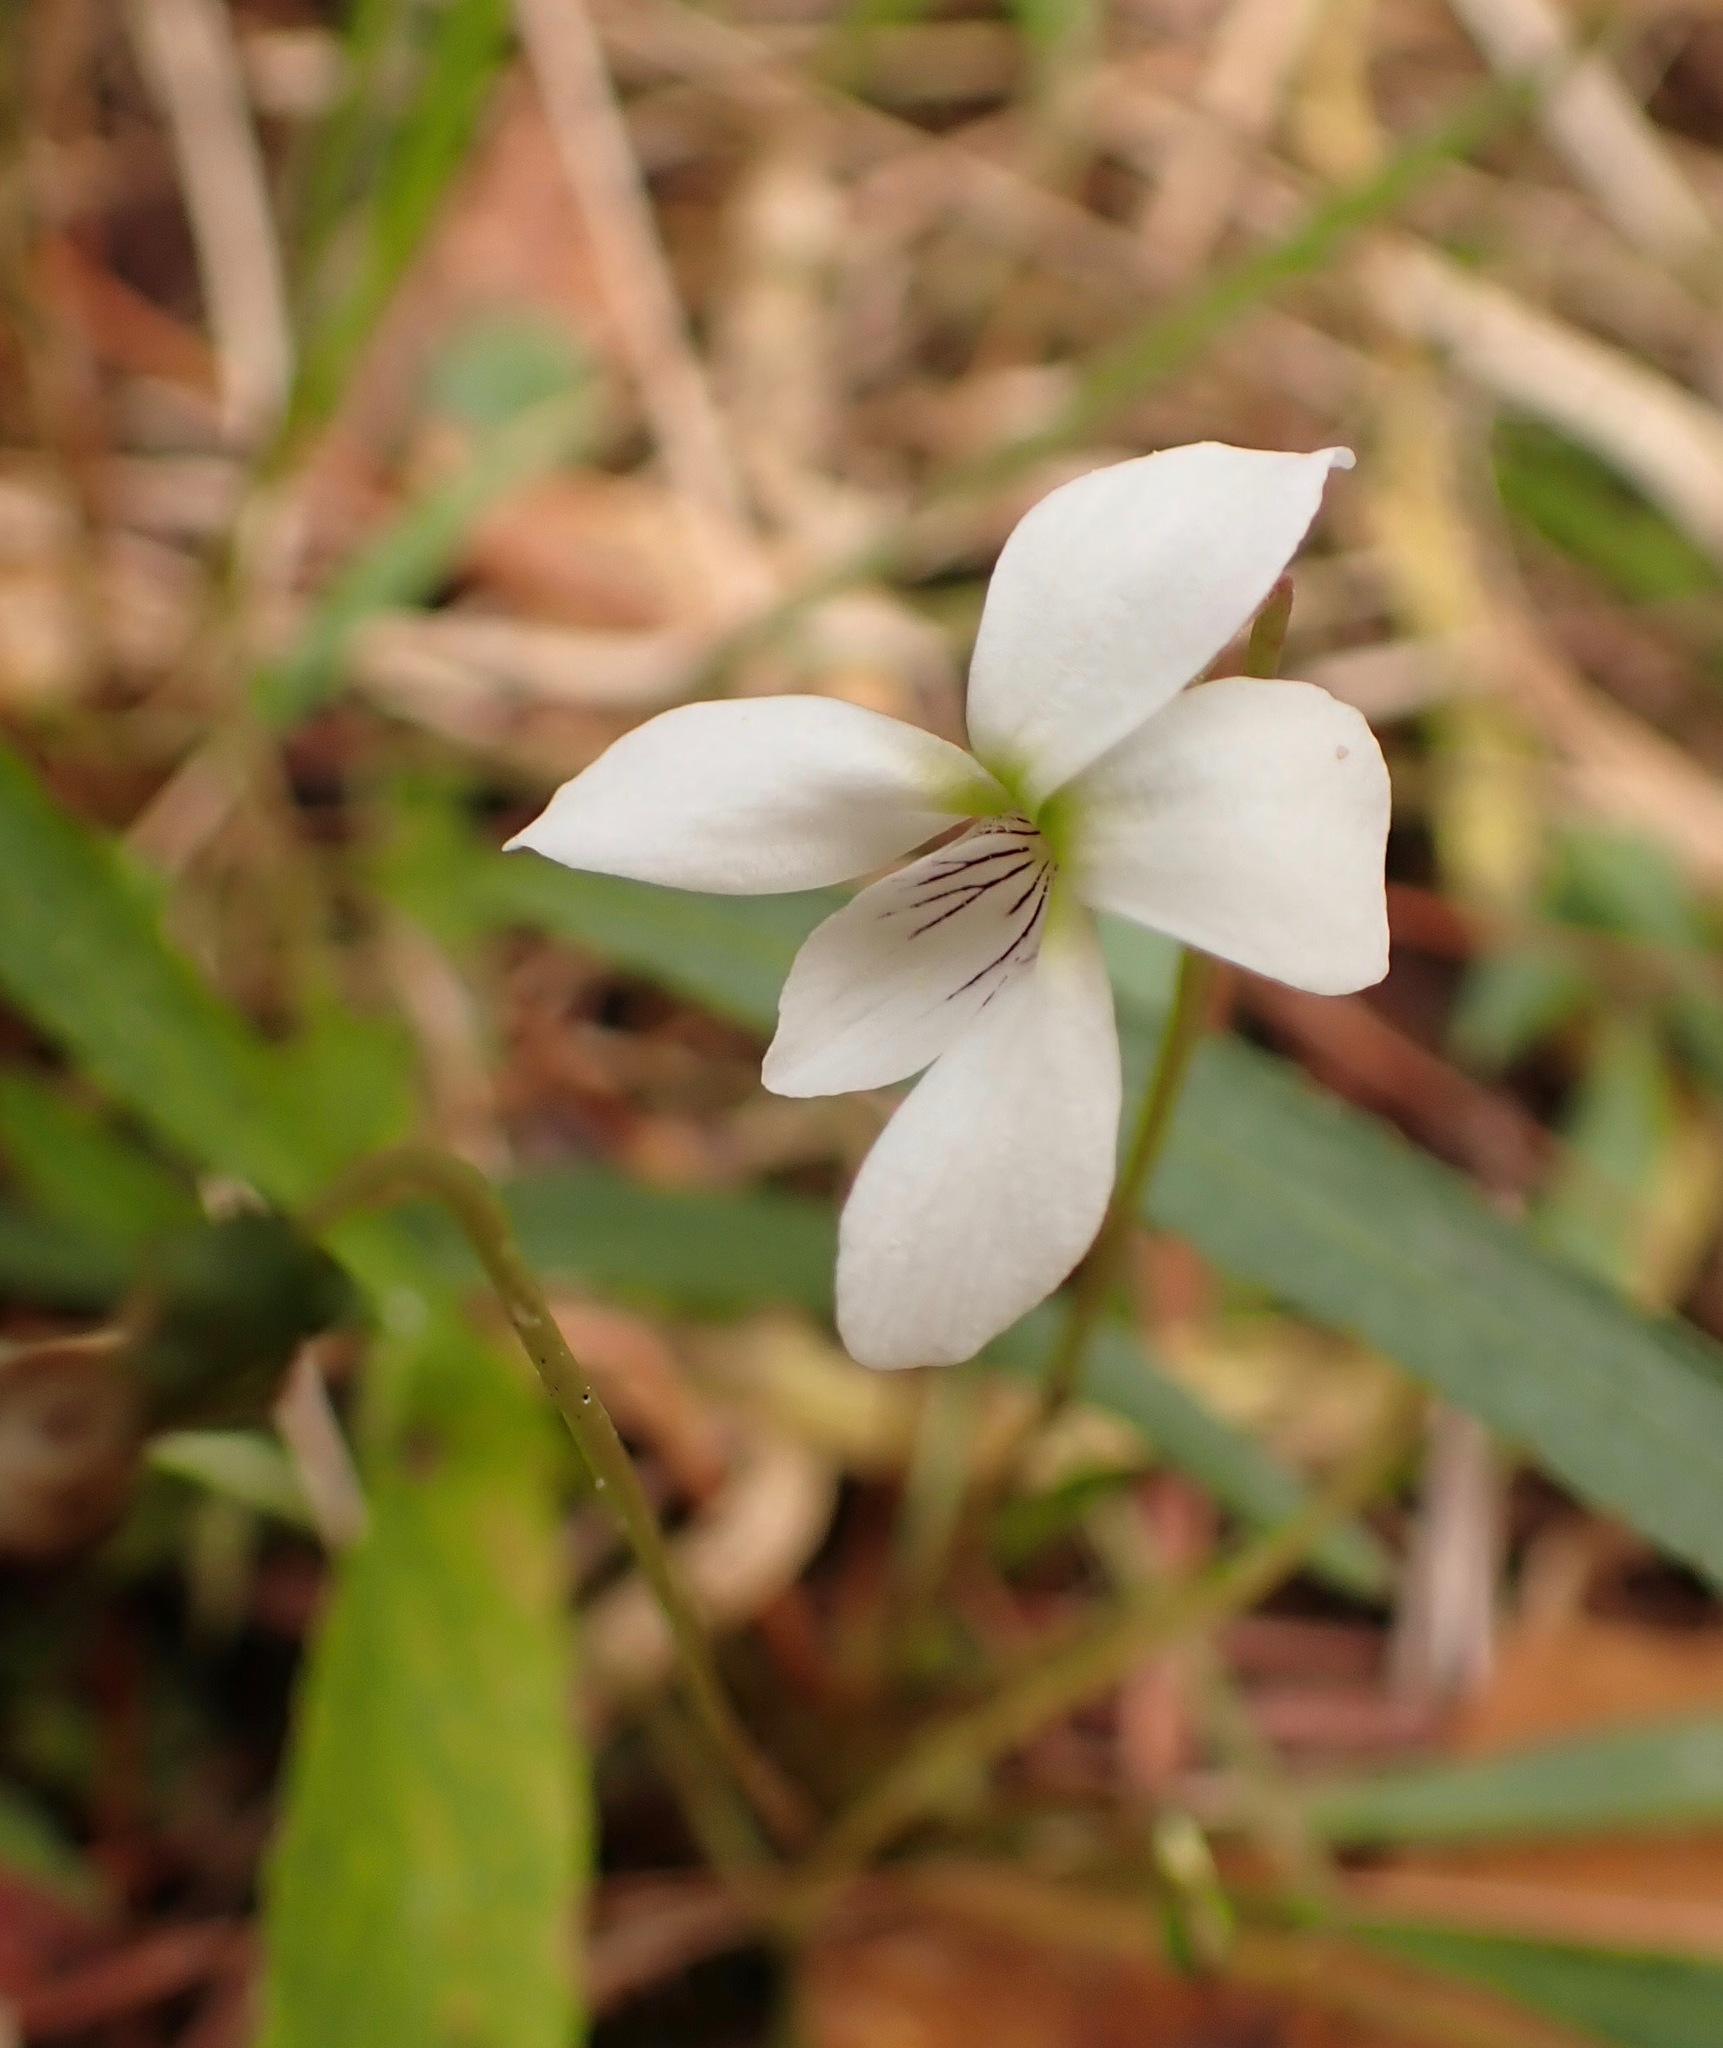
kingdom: Plantae
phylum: Tracheophyta
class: Magnoliopsida
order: Malpighiales
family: Violaceae
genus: Viola
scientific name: Viola vittata
